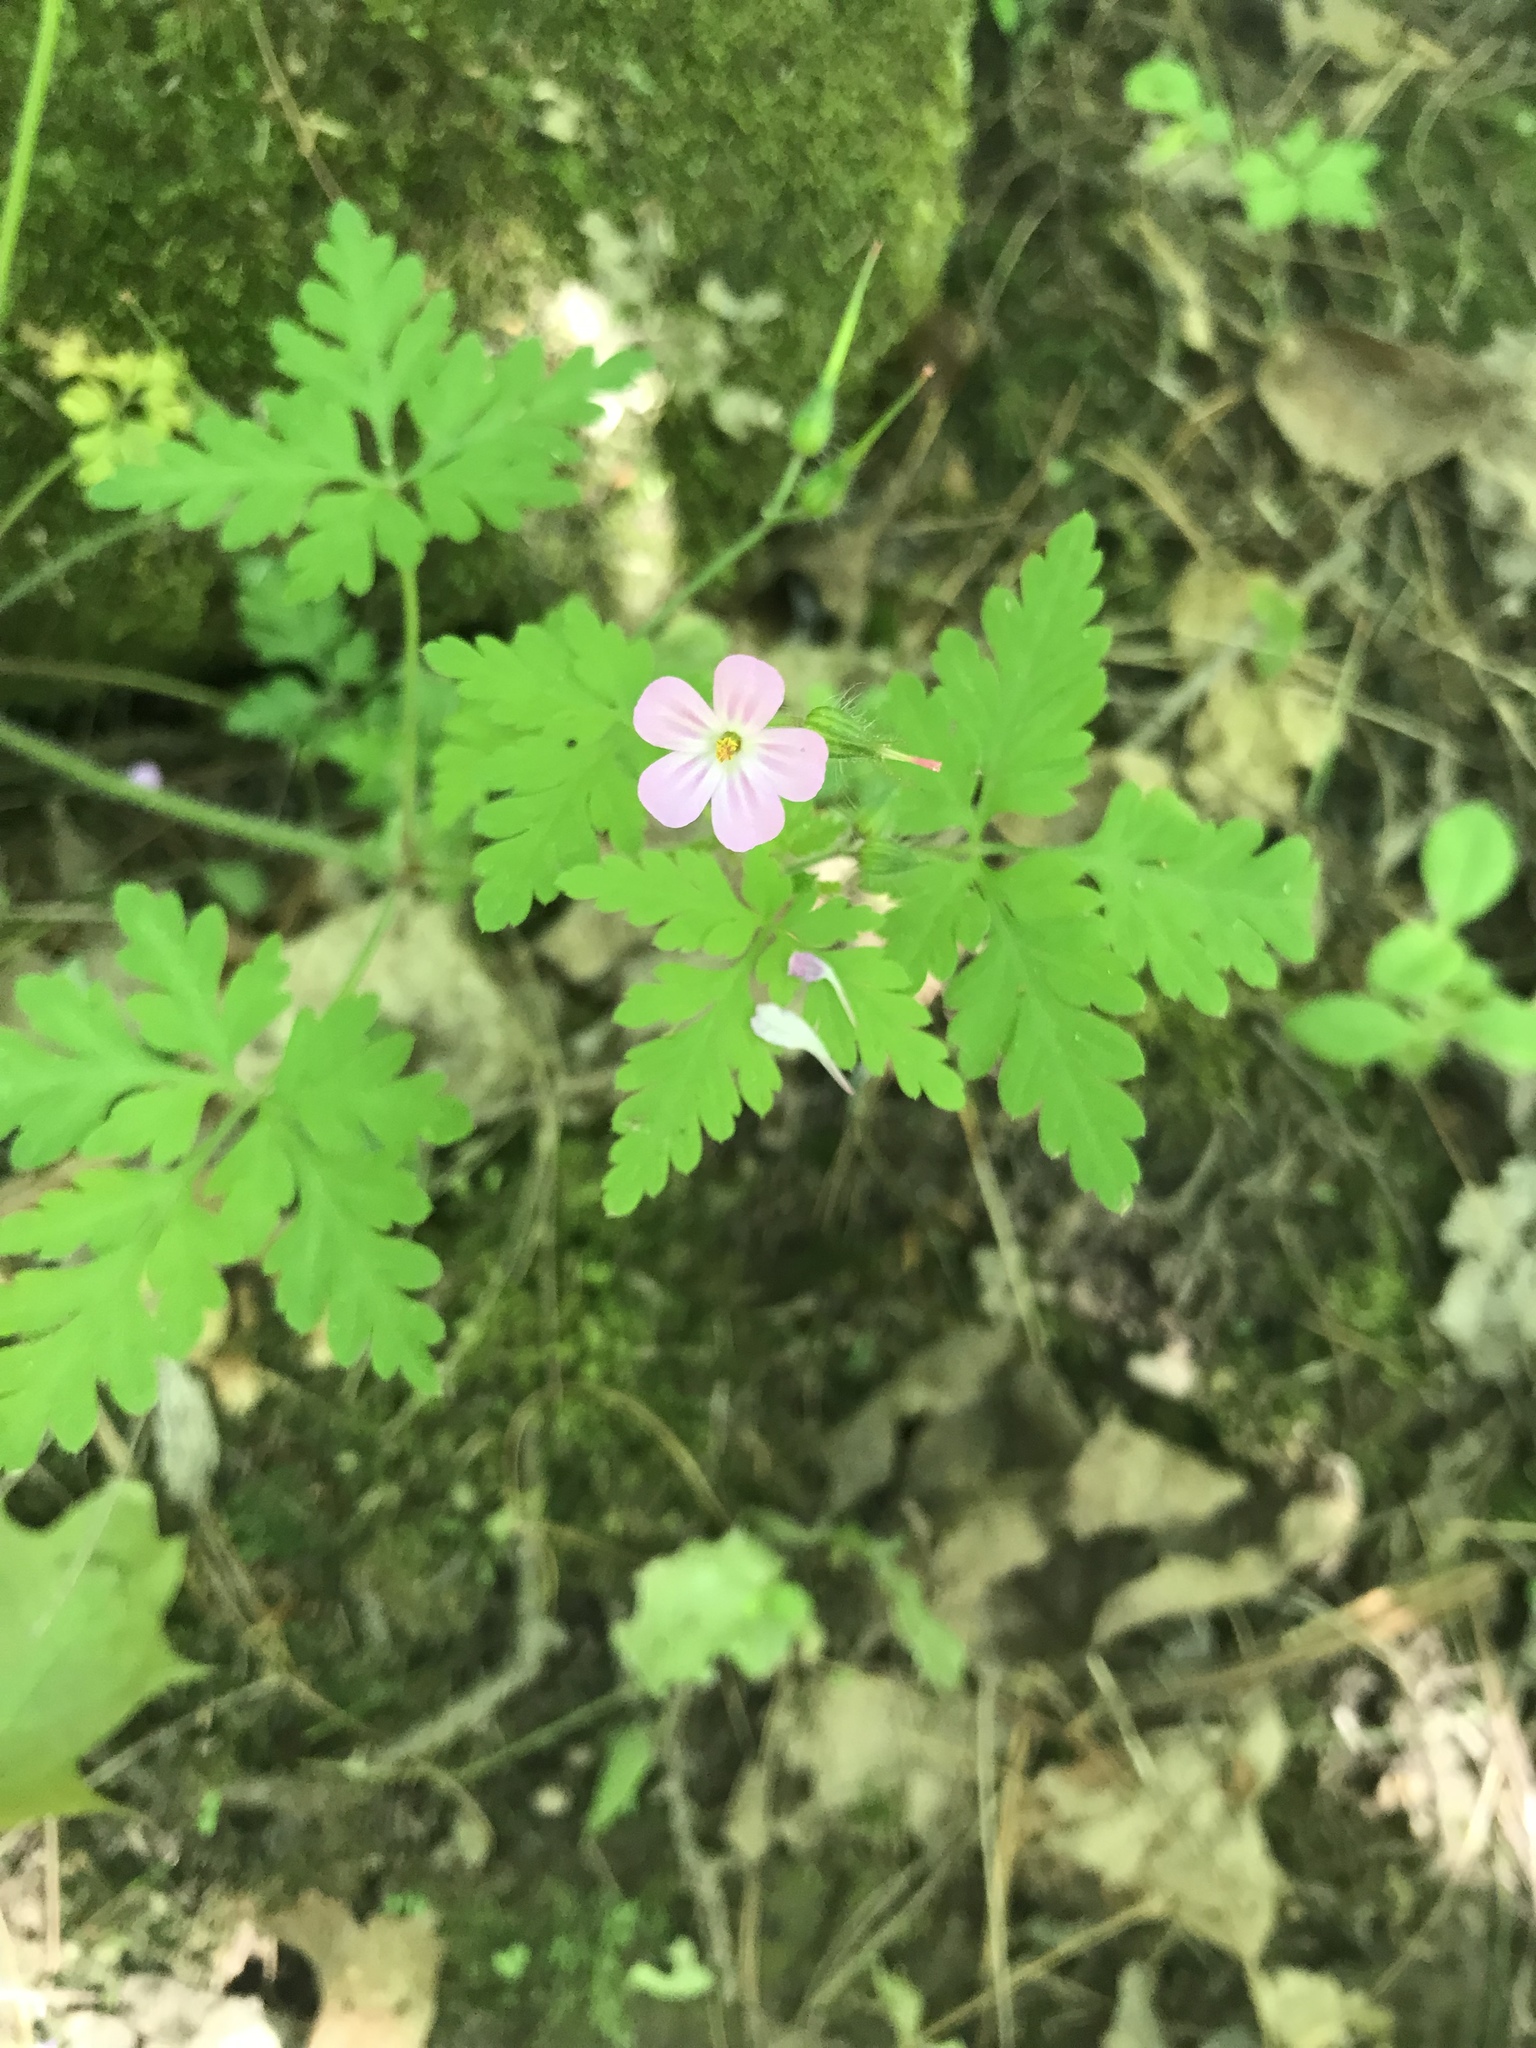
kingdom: Plantae
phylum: Tracheophyta
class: Magnoliopsida
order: Geraniales
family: Geraniaceae
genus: Geranium
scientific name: Geranium robertianum
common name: Herb-robert
